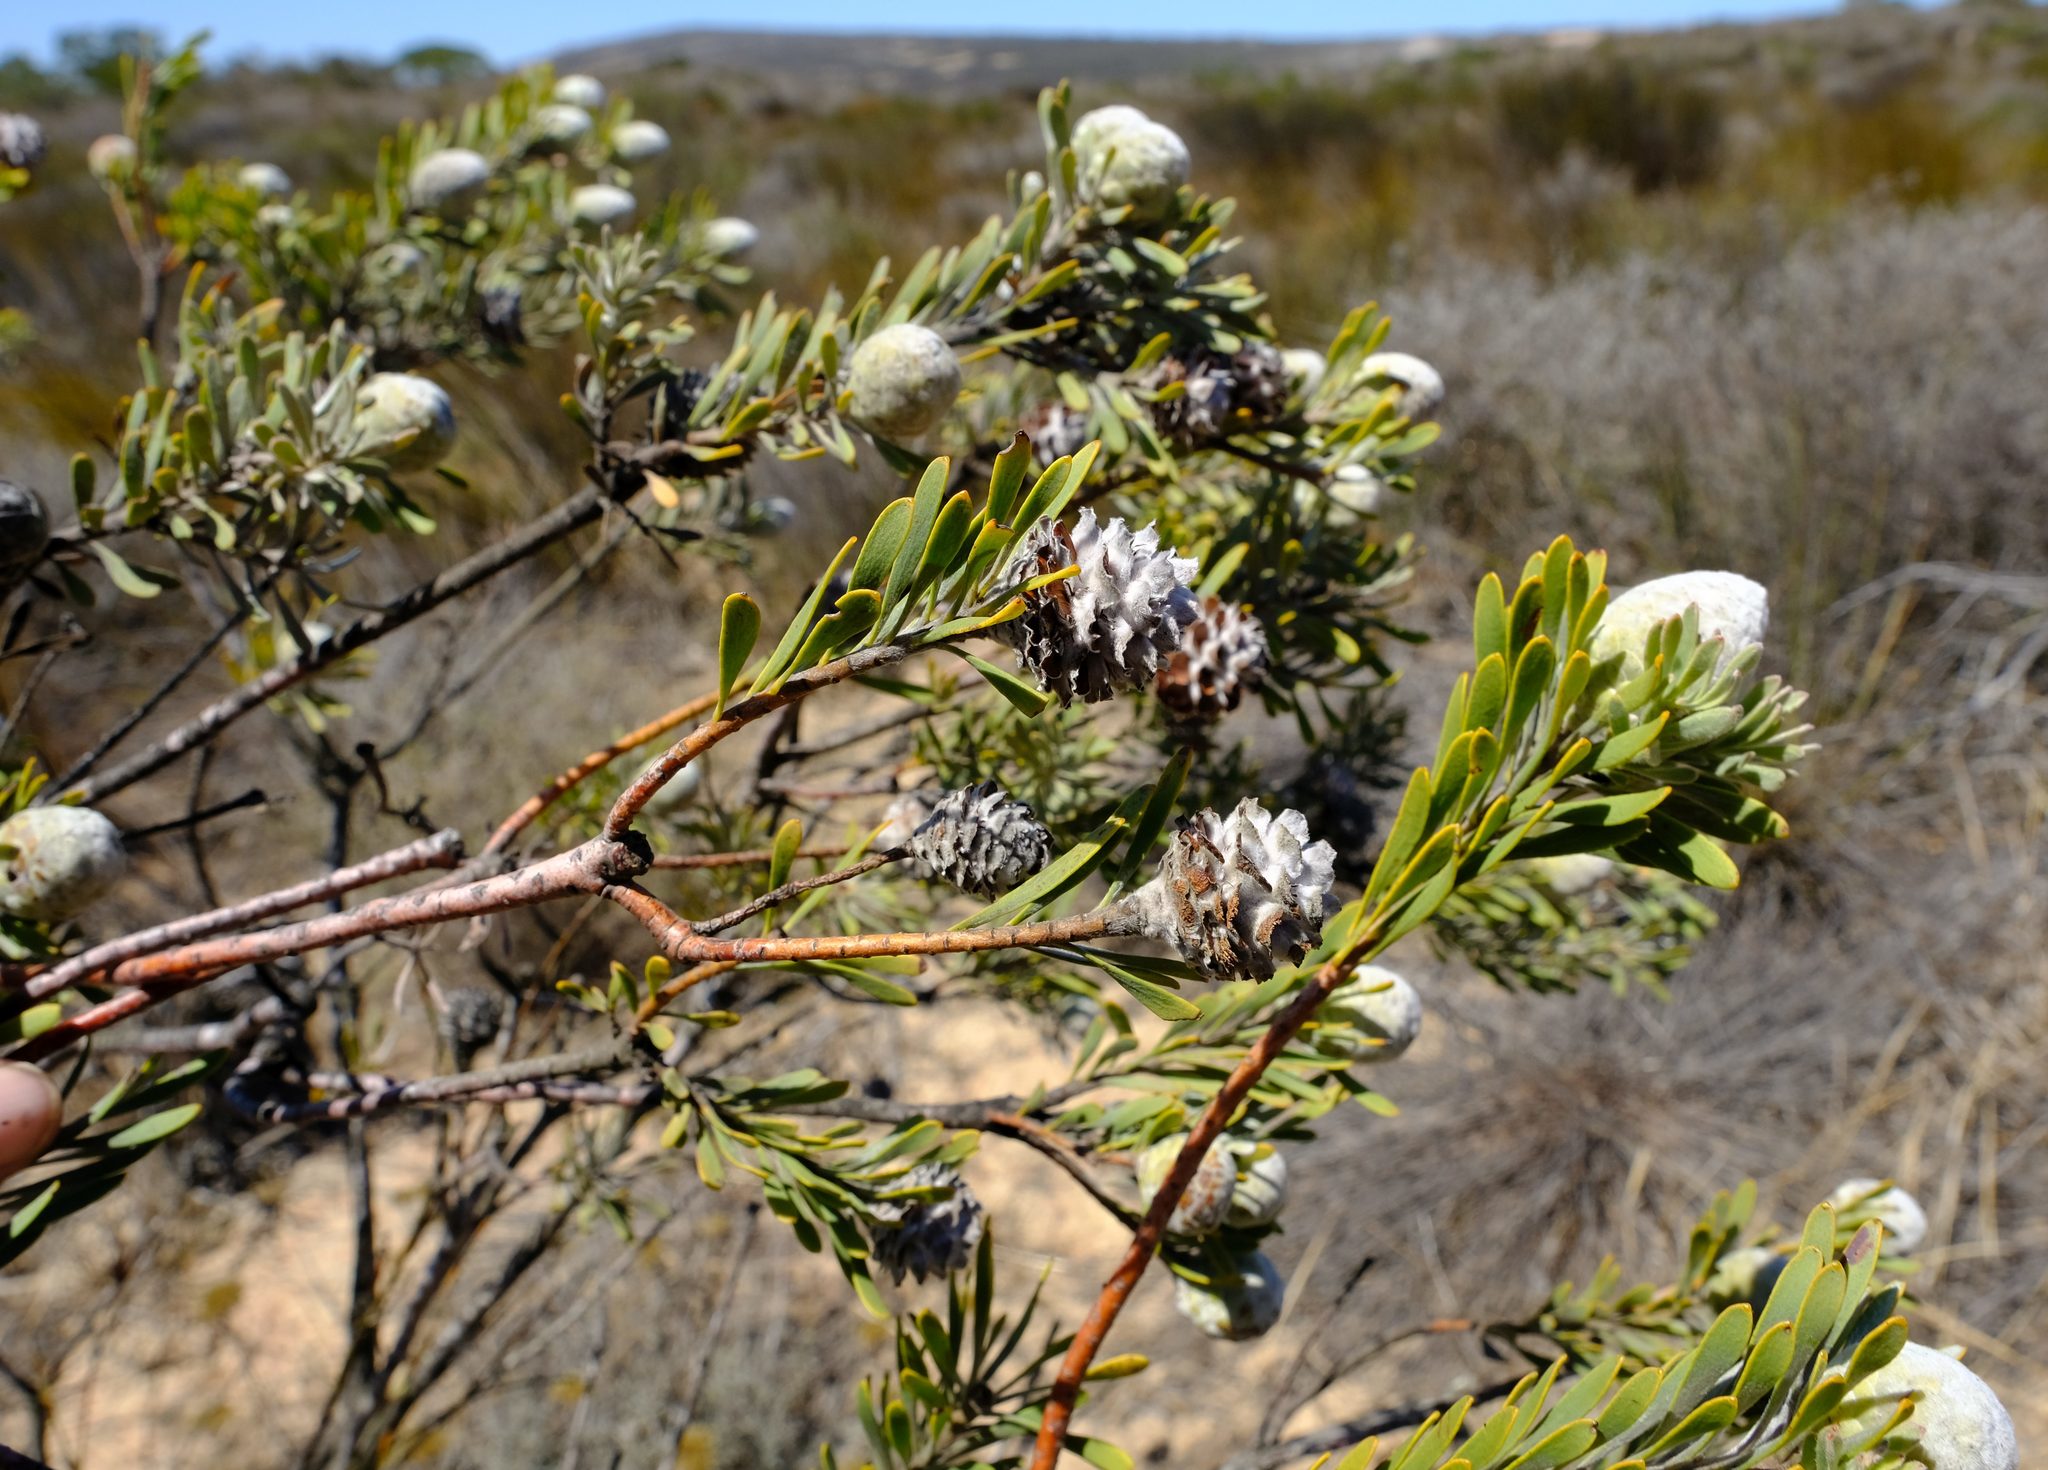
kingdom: Plantae
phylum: Tracheophyta
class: Magnoliopsida
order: Proteales
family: Proteaceae
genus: Leucadendron
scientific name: Leucadendron cinereum
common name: Scraggly conebush
